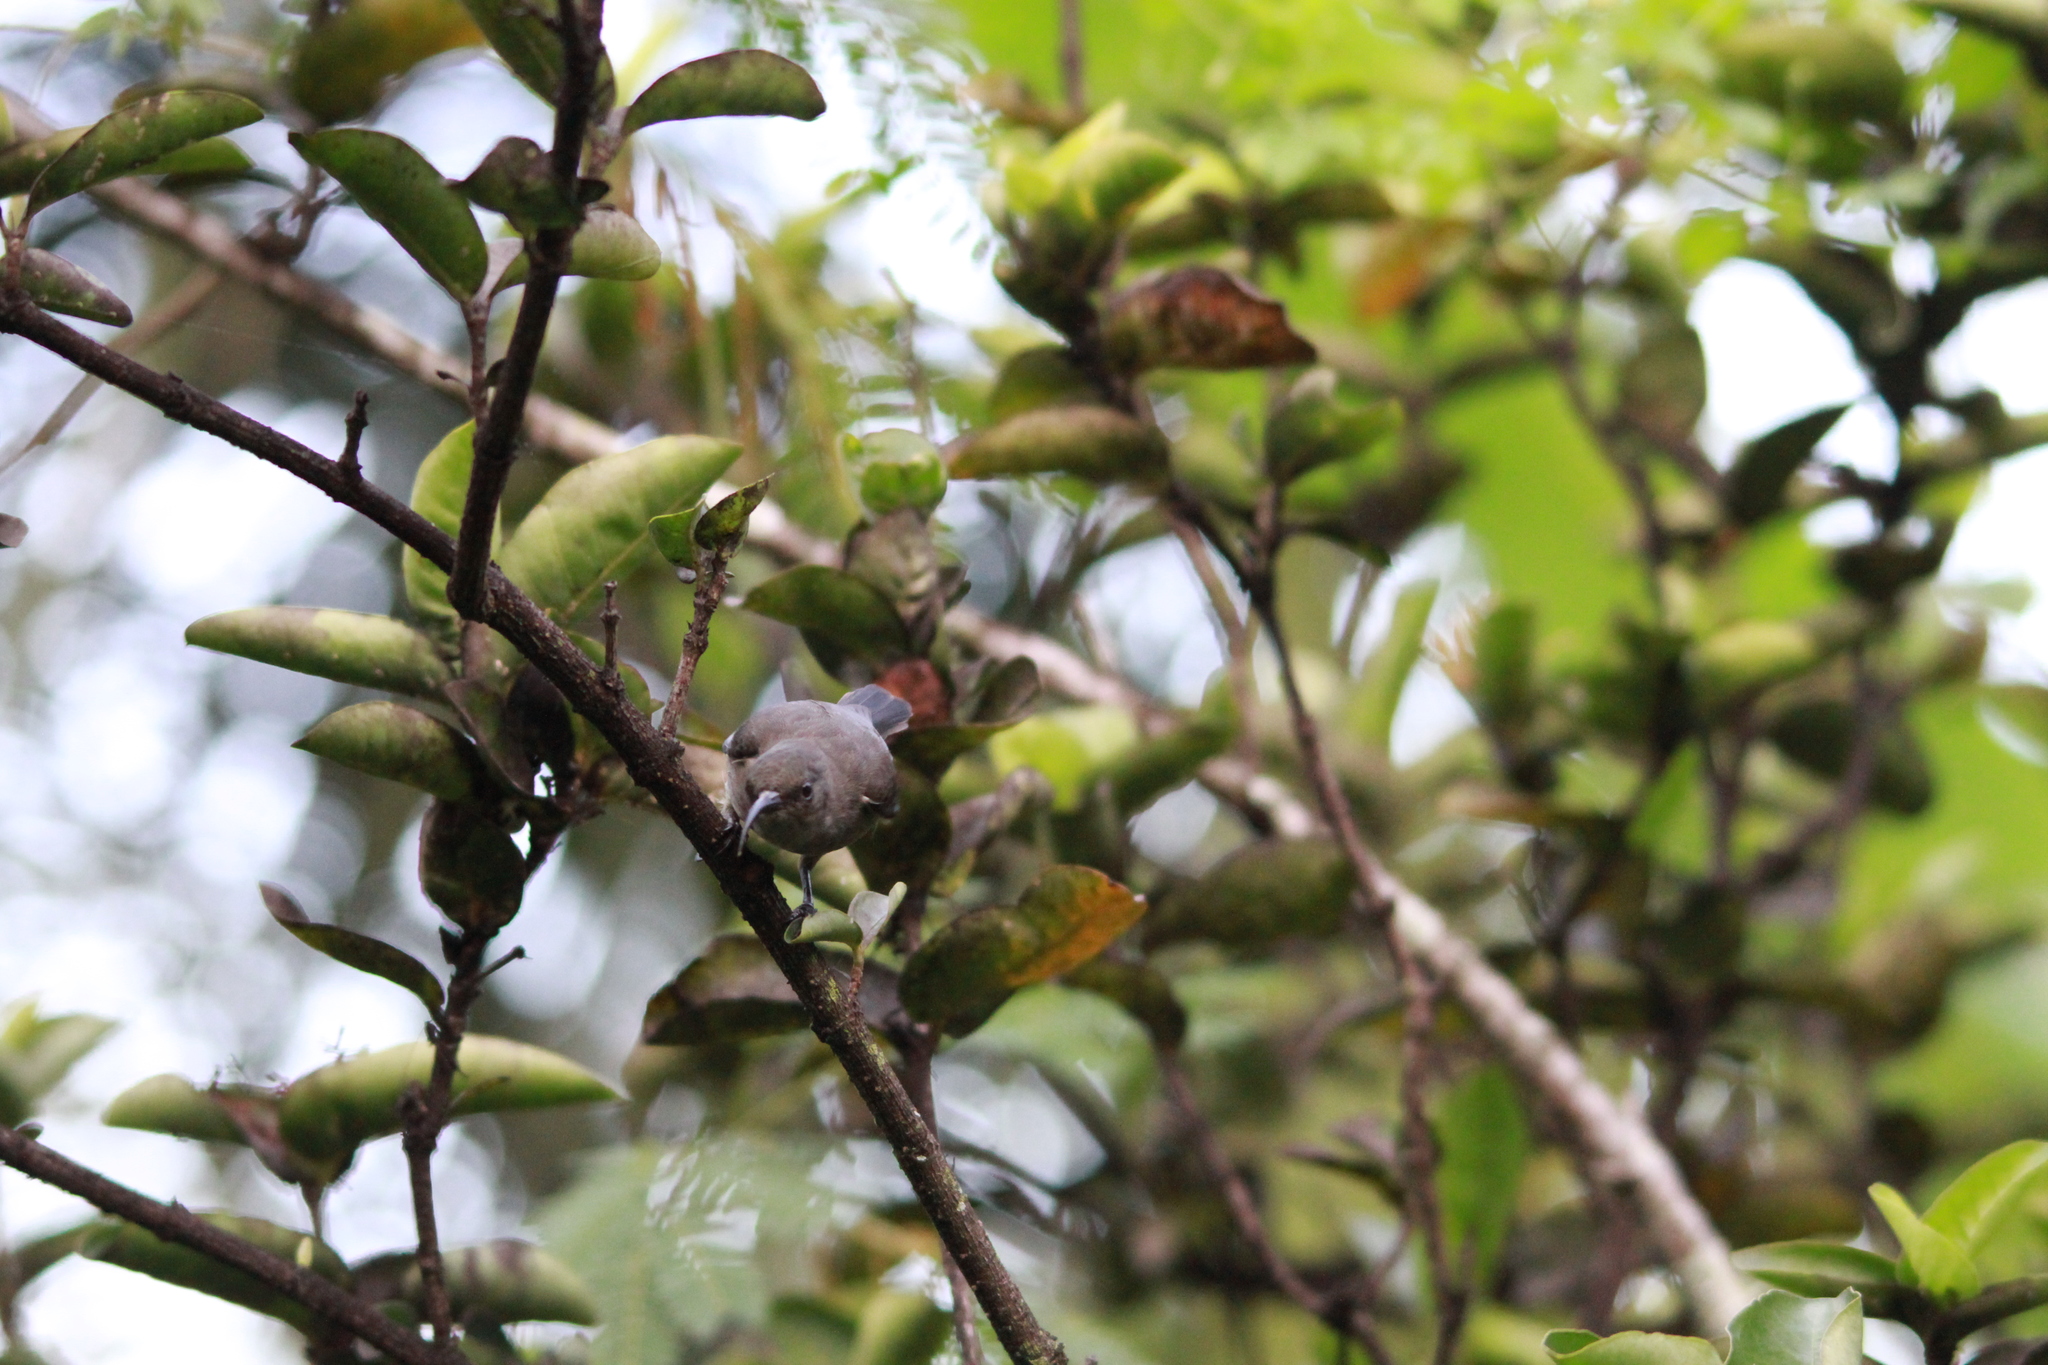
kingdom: Animalia
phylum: Chordata
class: Aves
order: Passeriformes
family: Nectariniidae
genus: Cinnyris
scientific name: Cinnyris dussumieri
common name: Seychelles sunbird
